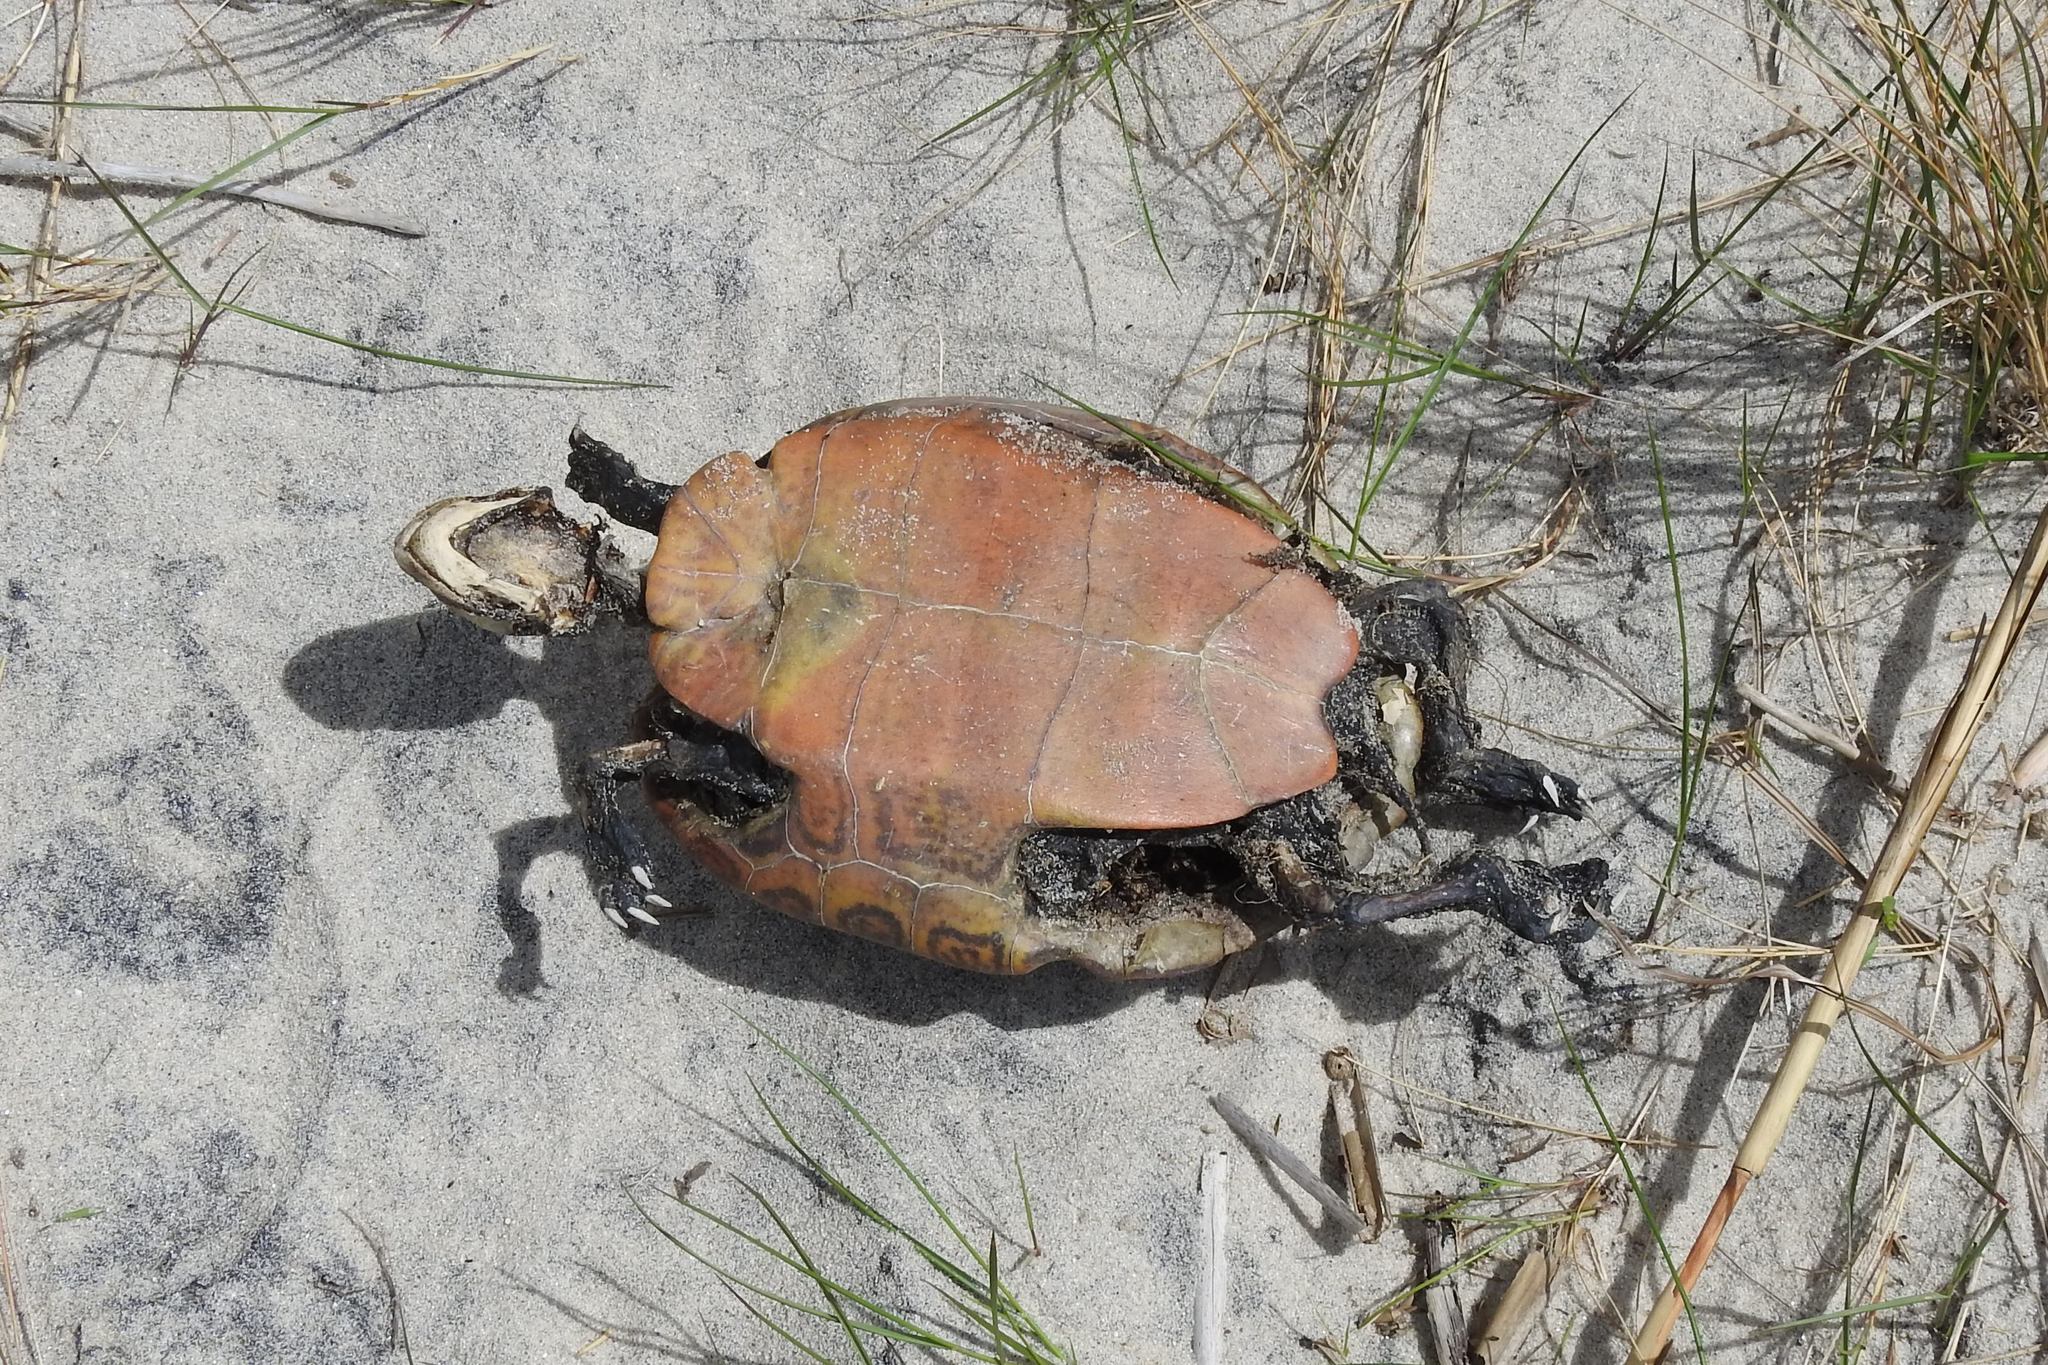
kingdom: Animalia
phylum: Chordata
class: Testudines
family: Emydidae
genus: Malaclemys
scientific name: Malaclemys terrapin
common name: Diamondback terrapin
